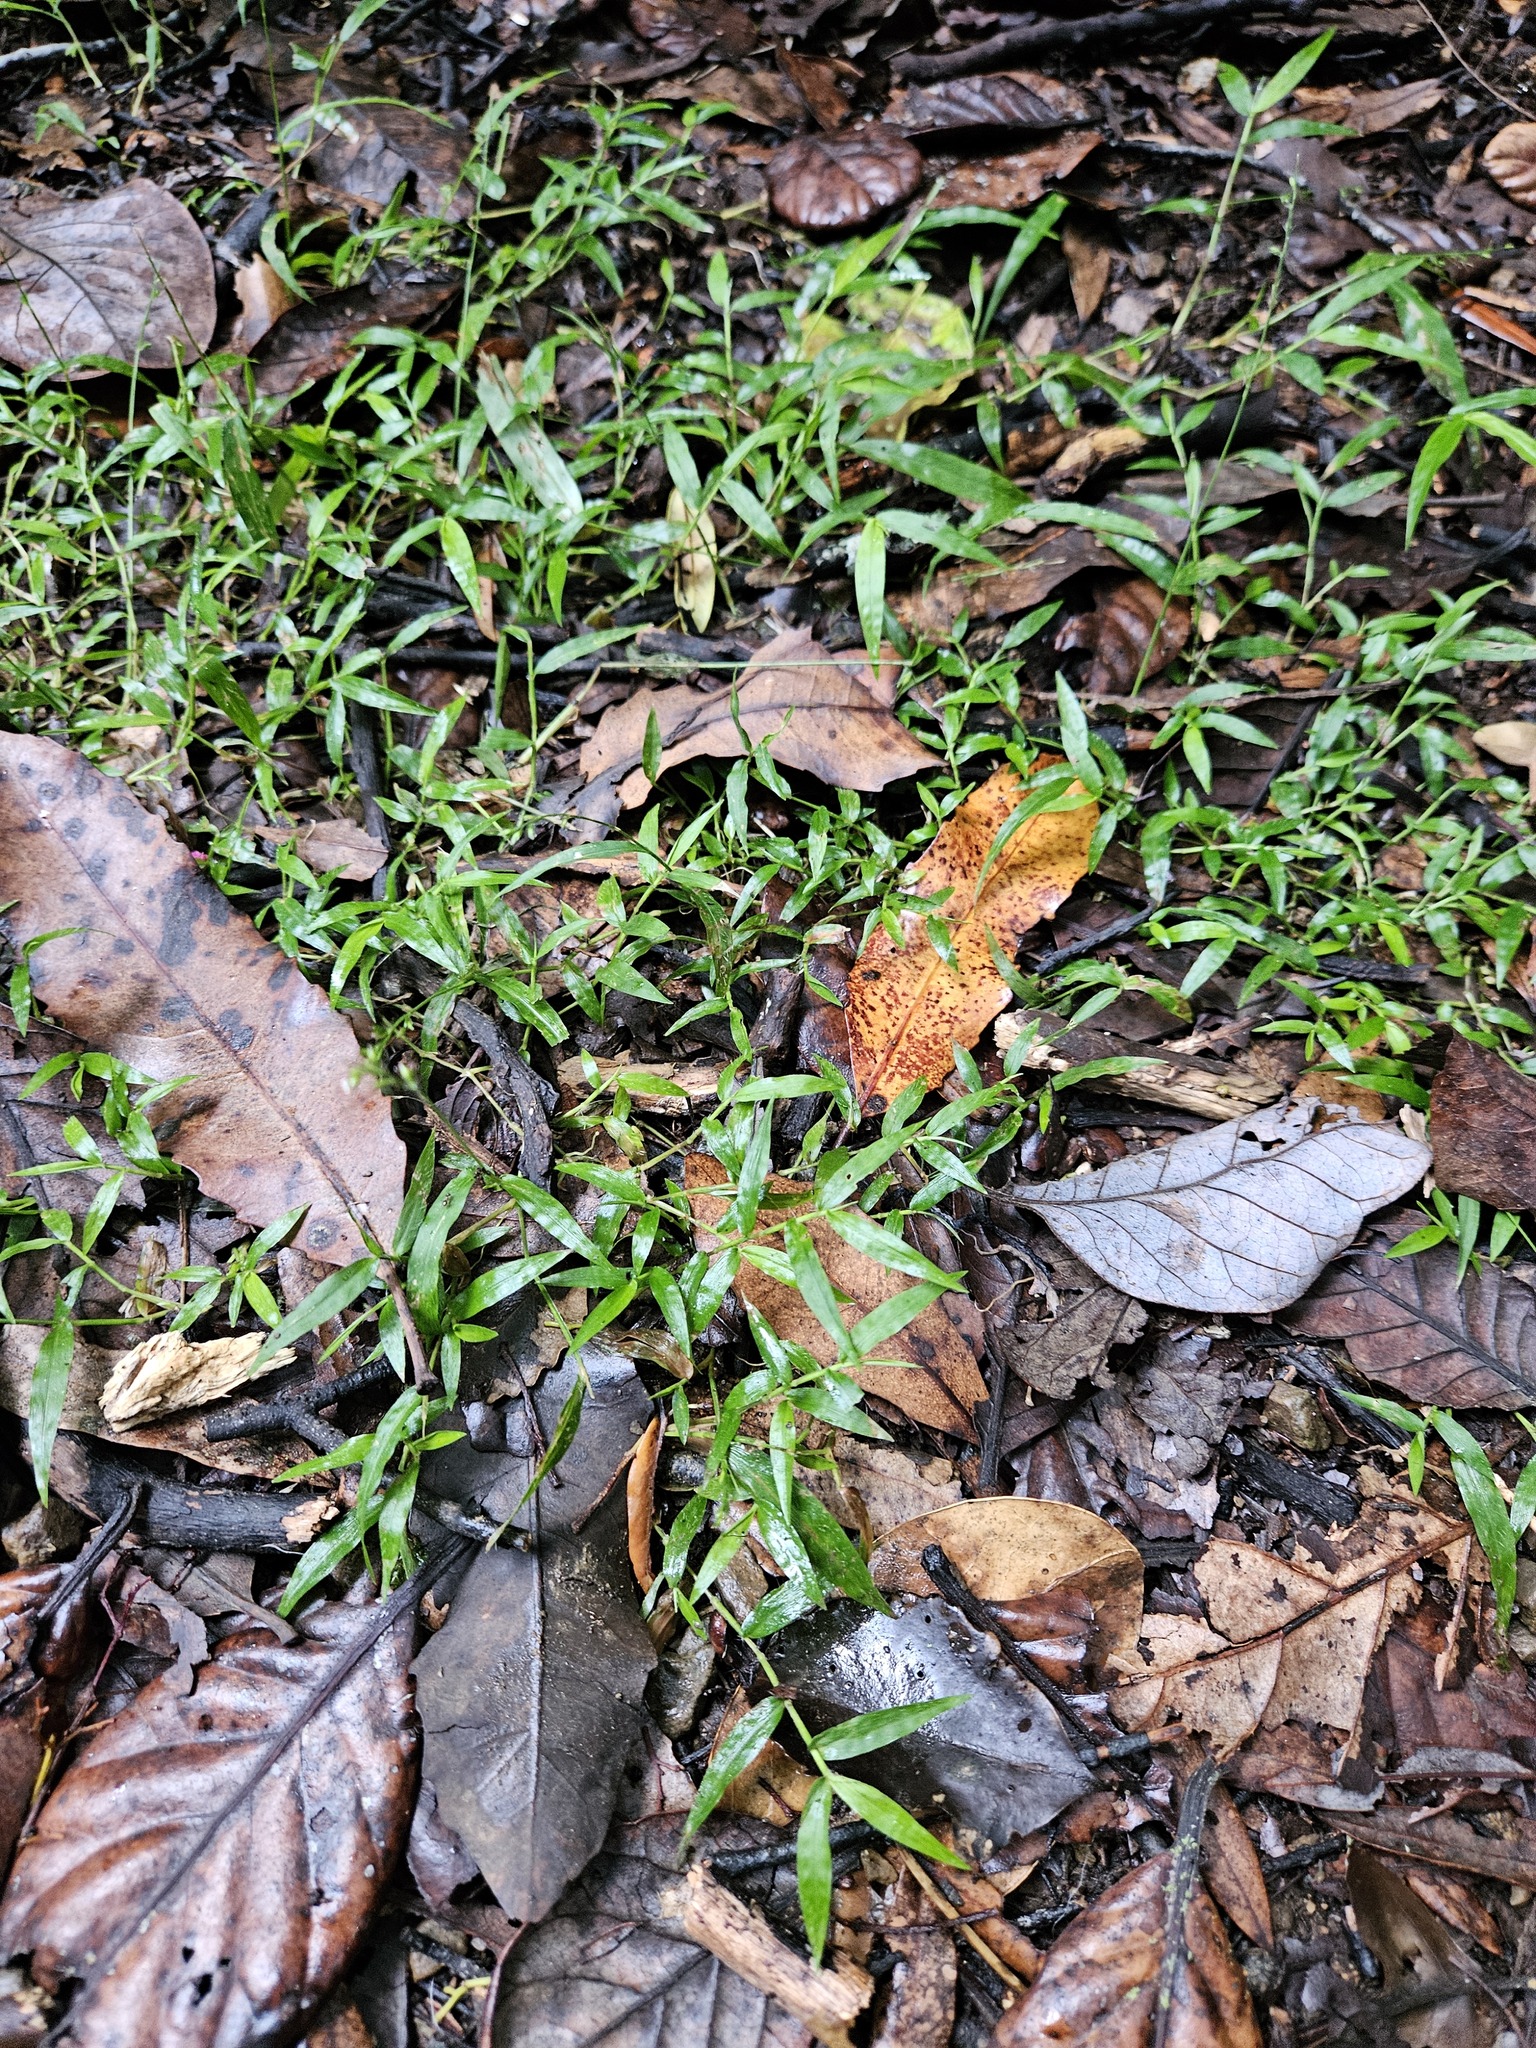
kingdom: Plantae
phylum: Tracheophyta
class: Liliopsida
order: Poales
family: Poaceae
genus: Oplismenus
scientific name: Oplismenus hirtellus
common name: Basketgrass
